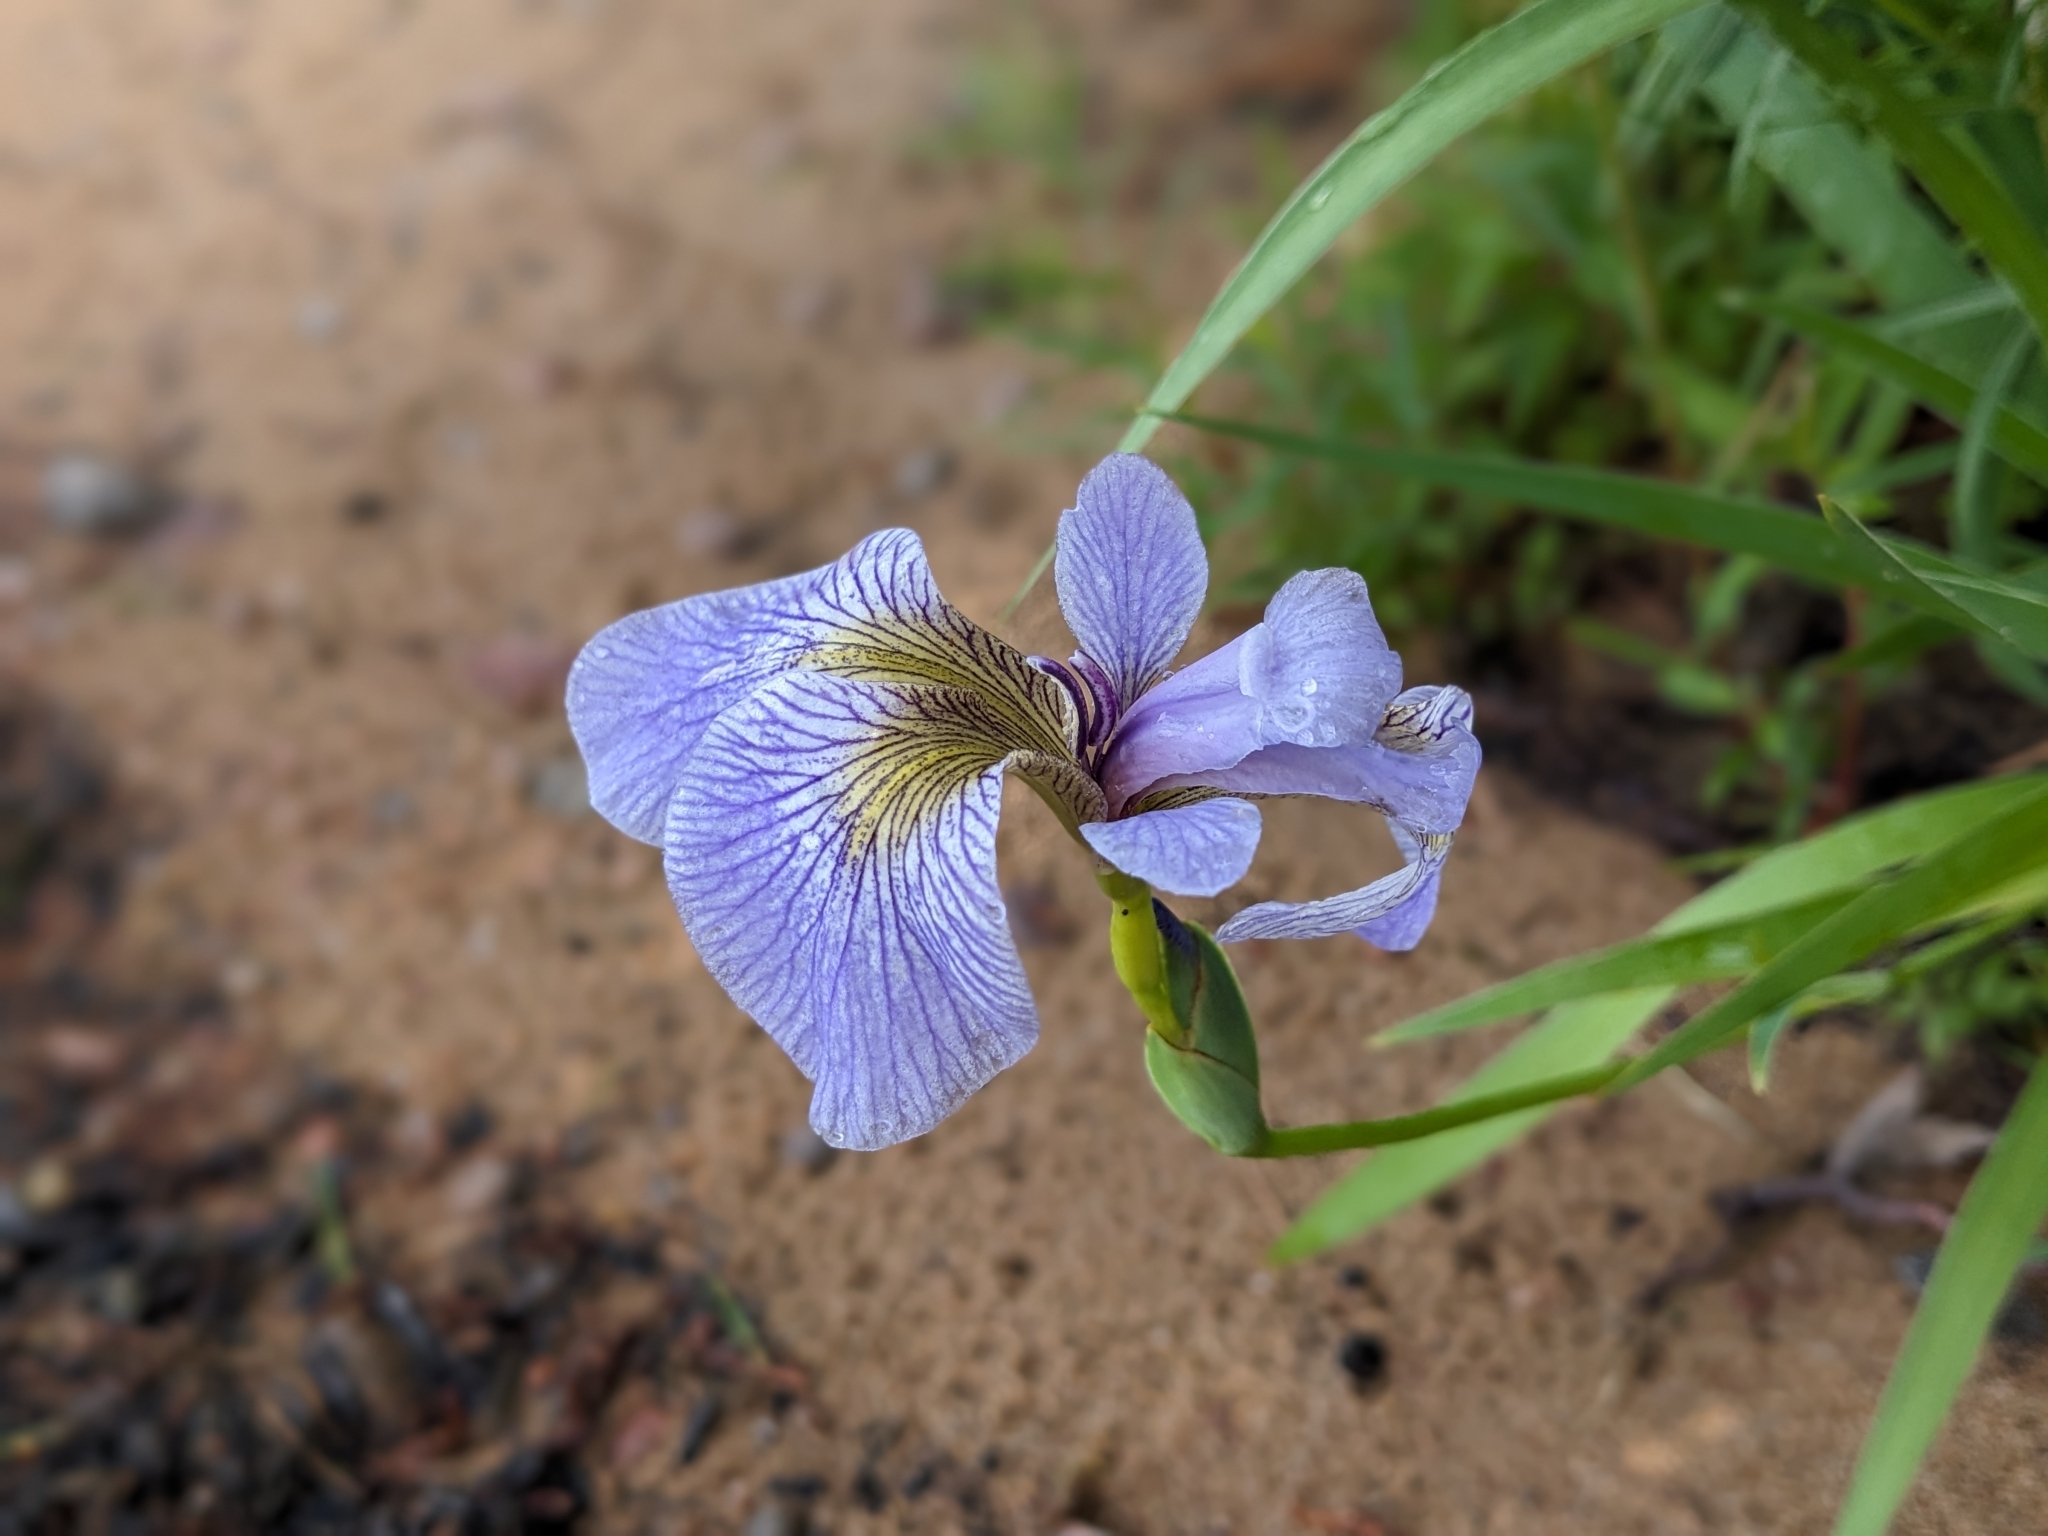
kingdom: Plantae
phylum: Tracheophyta
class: Liliopsida
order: Asparagales
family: Iridaceae
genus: Iris
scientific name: Iris versicolor
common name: Purple iris
